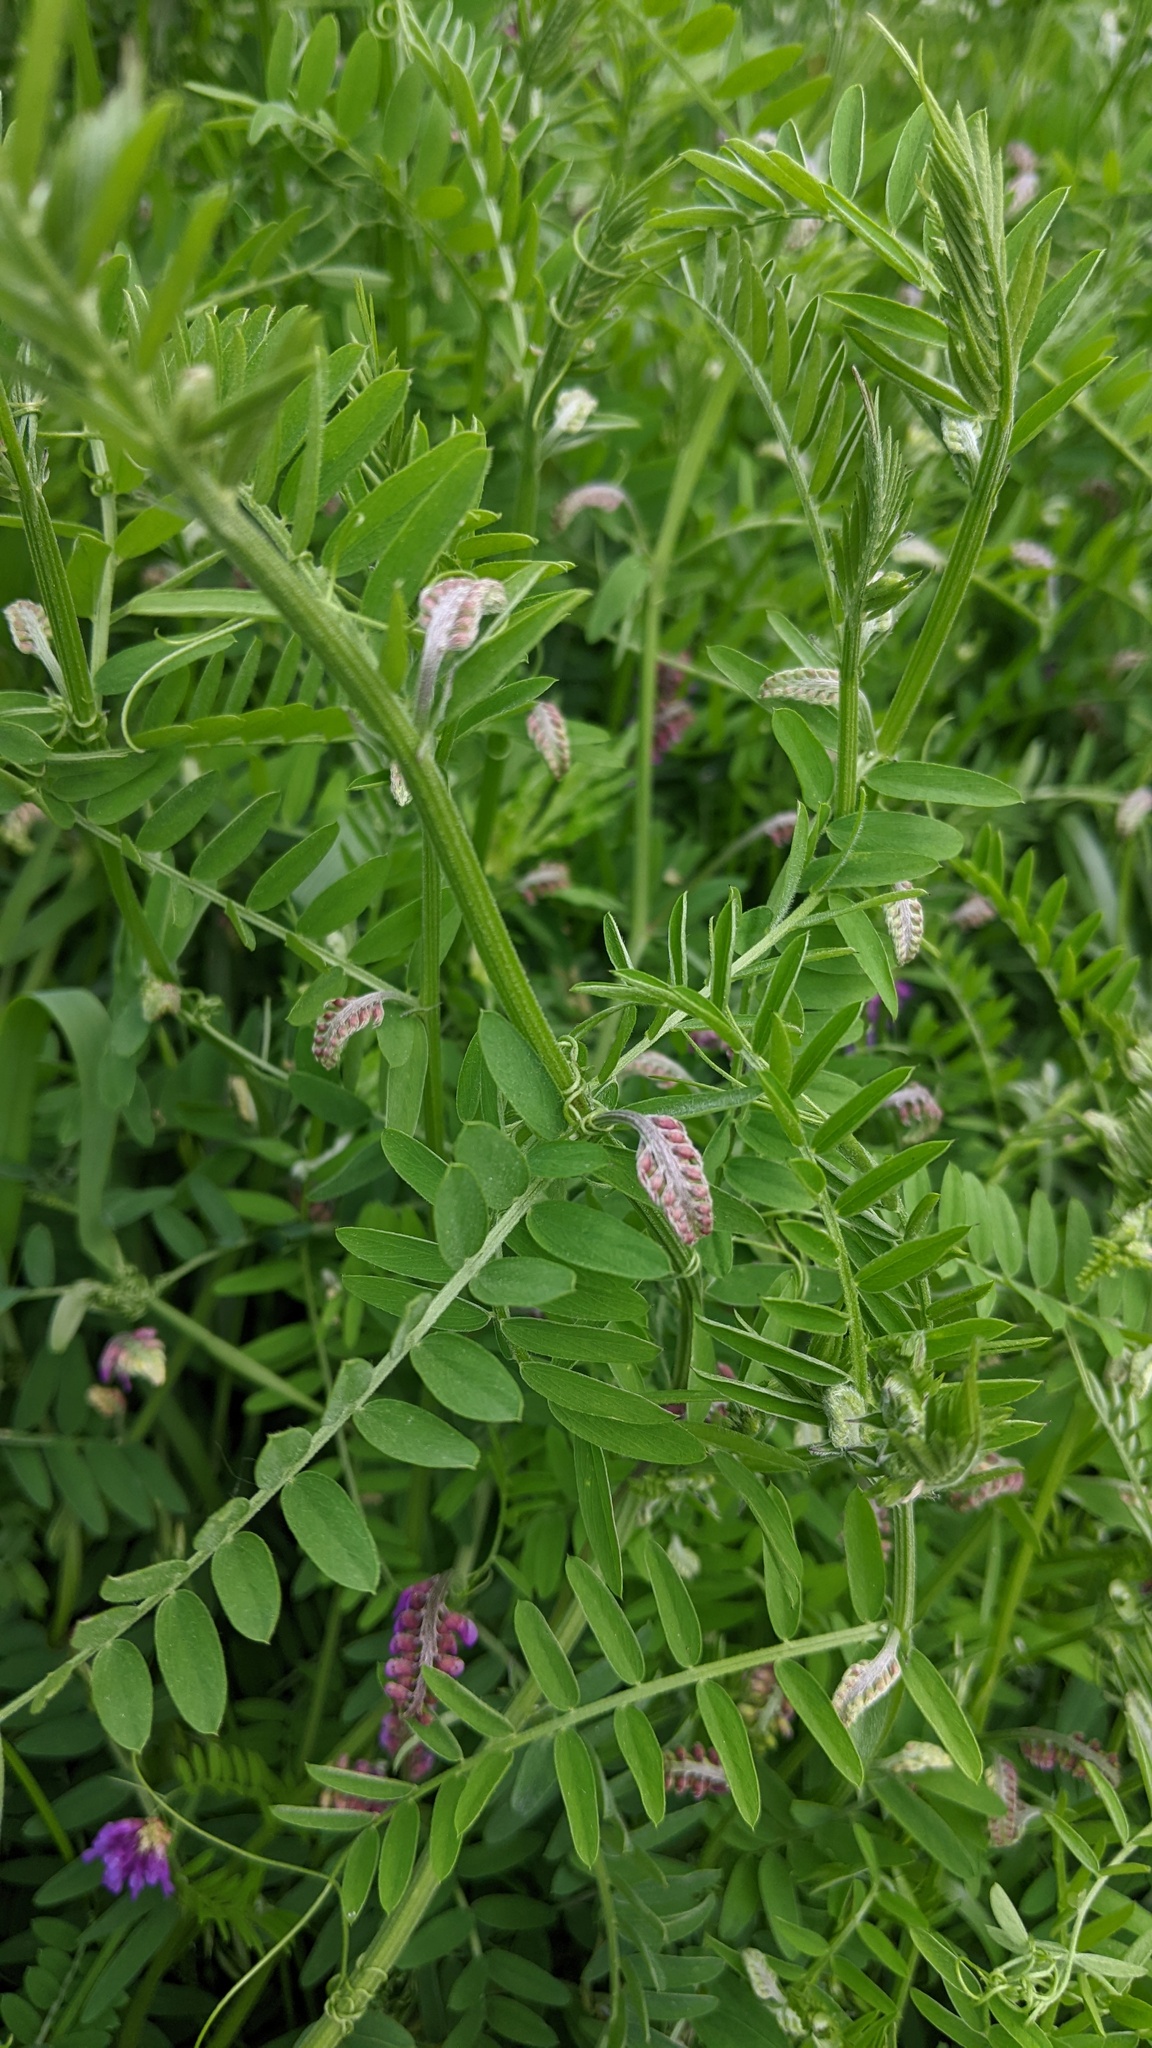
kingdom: Plantae
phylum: Tracheophyta
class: Magnoliopsida
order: Fabales
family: Fabaceae
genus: Vicia
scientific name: Vicia cracca
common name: Bird vetch
